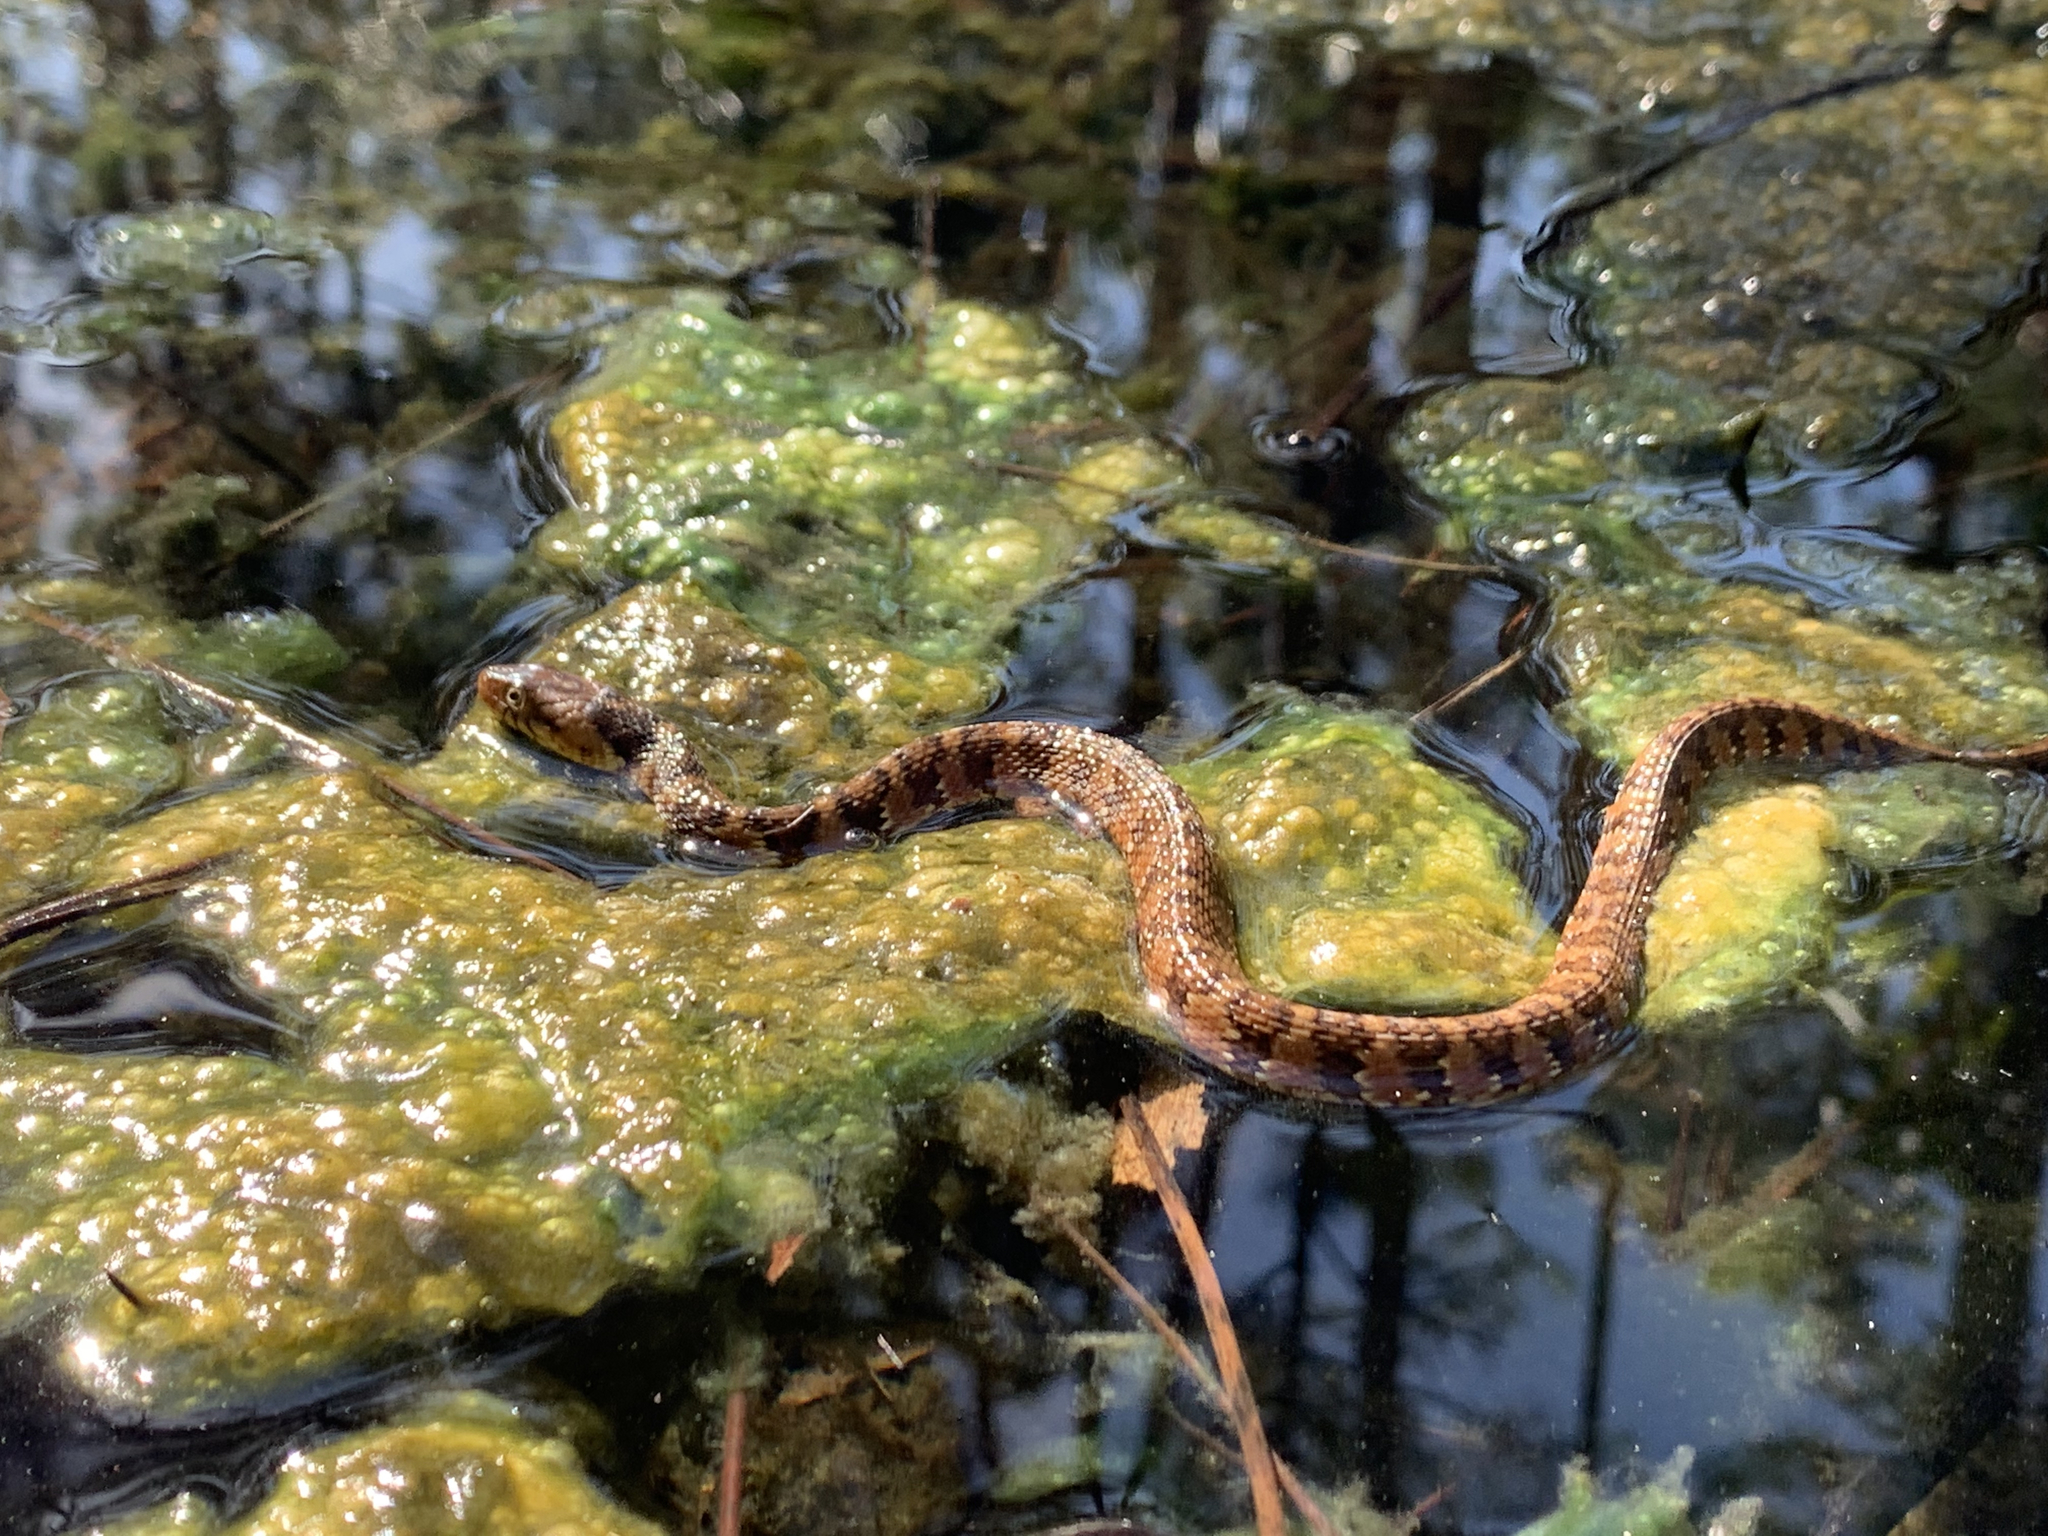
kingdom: Animalia
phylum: Chordata
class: Squamata
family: Colubridae
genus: Nerodia
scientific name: Nerodia fasciata
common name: Southern water snake
